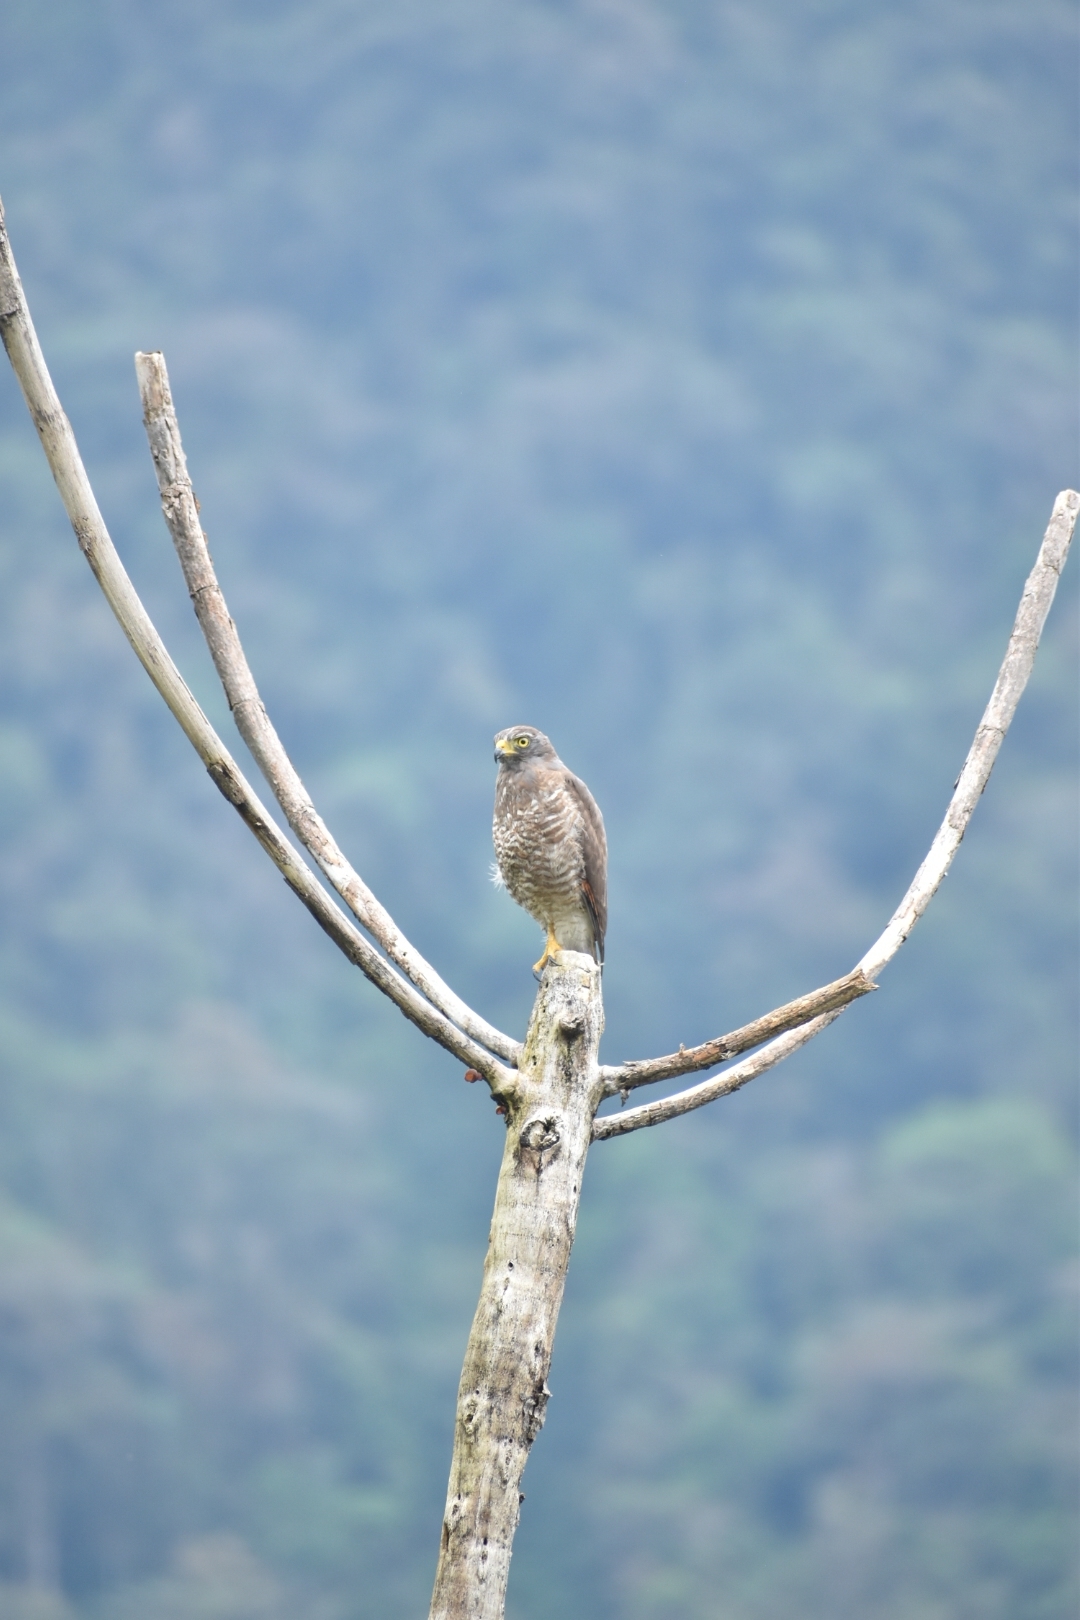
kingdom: Animalia
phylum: Chordata
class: Aves
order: Accipitriformes
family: Accipitridae
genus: Rupornis
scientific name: Rupornis magnirostris
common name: Roadside hawk
